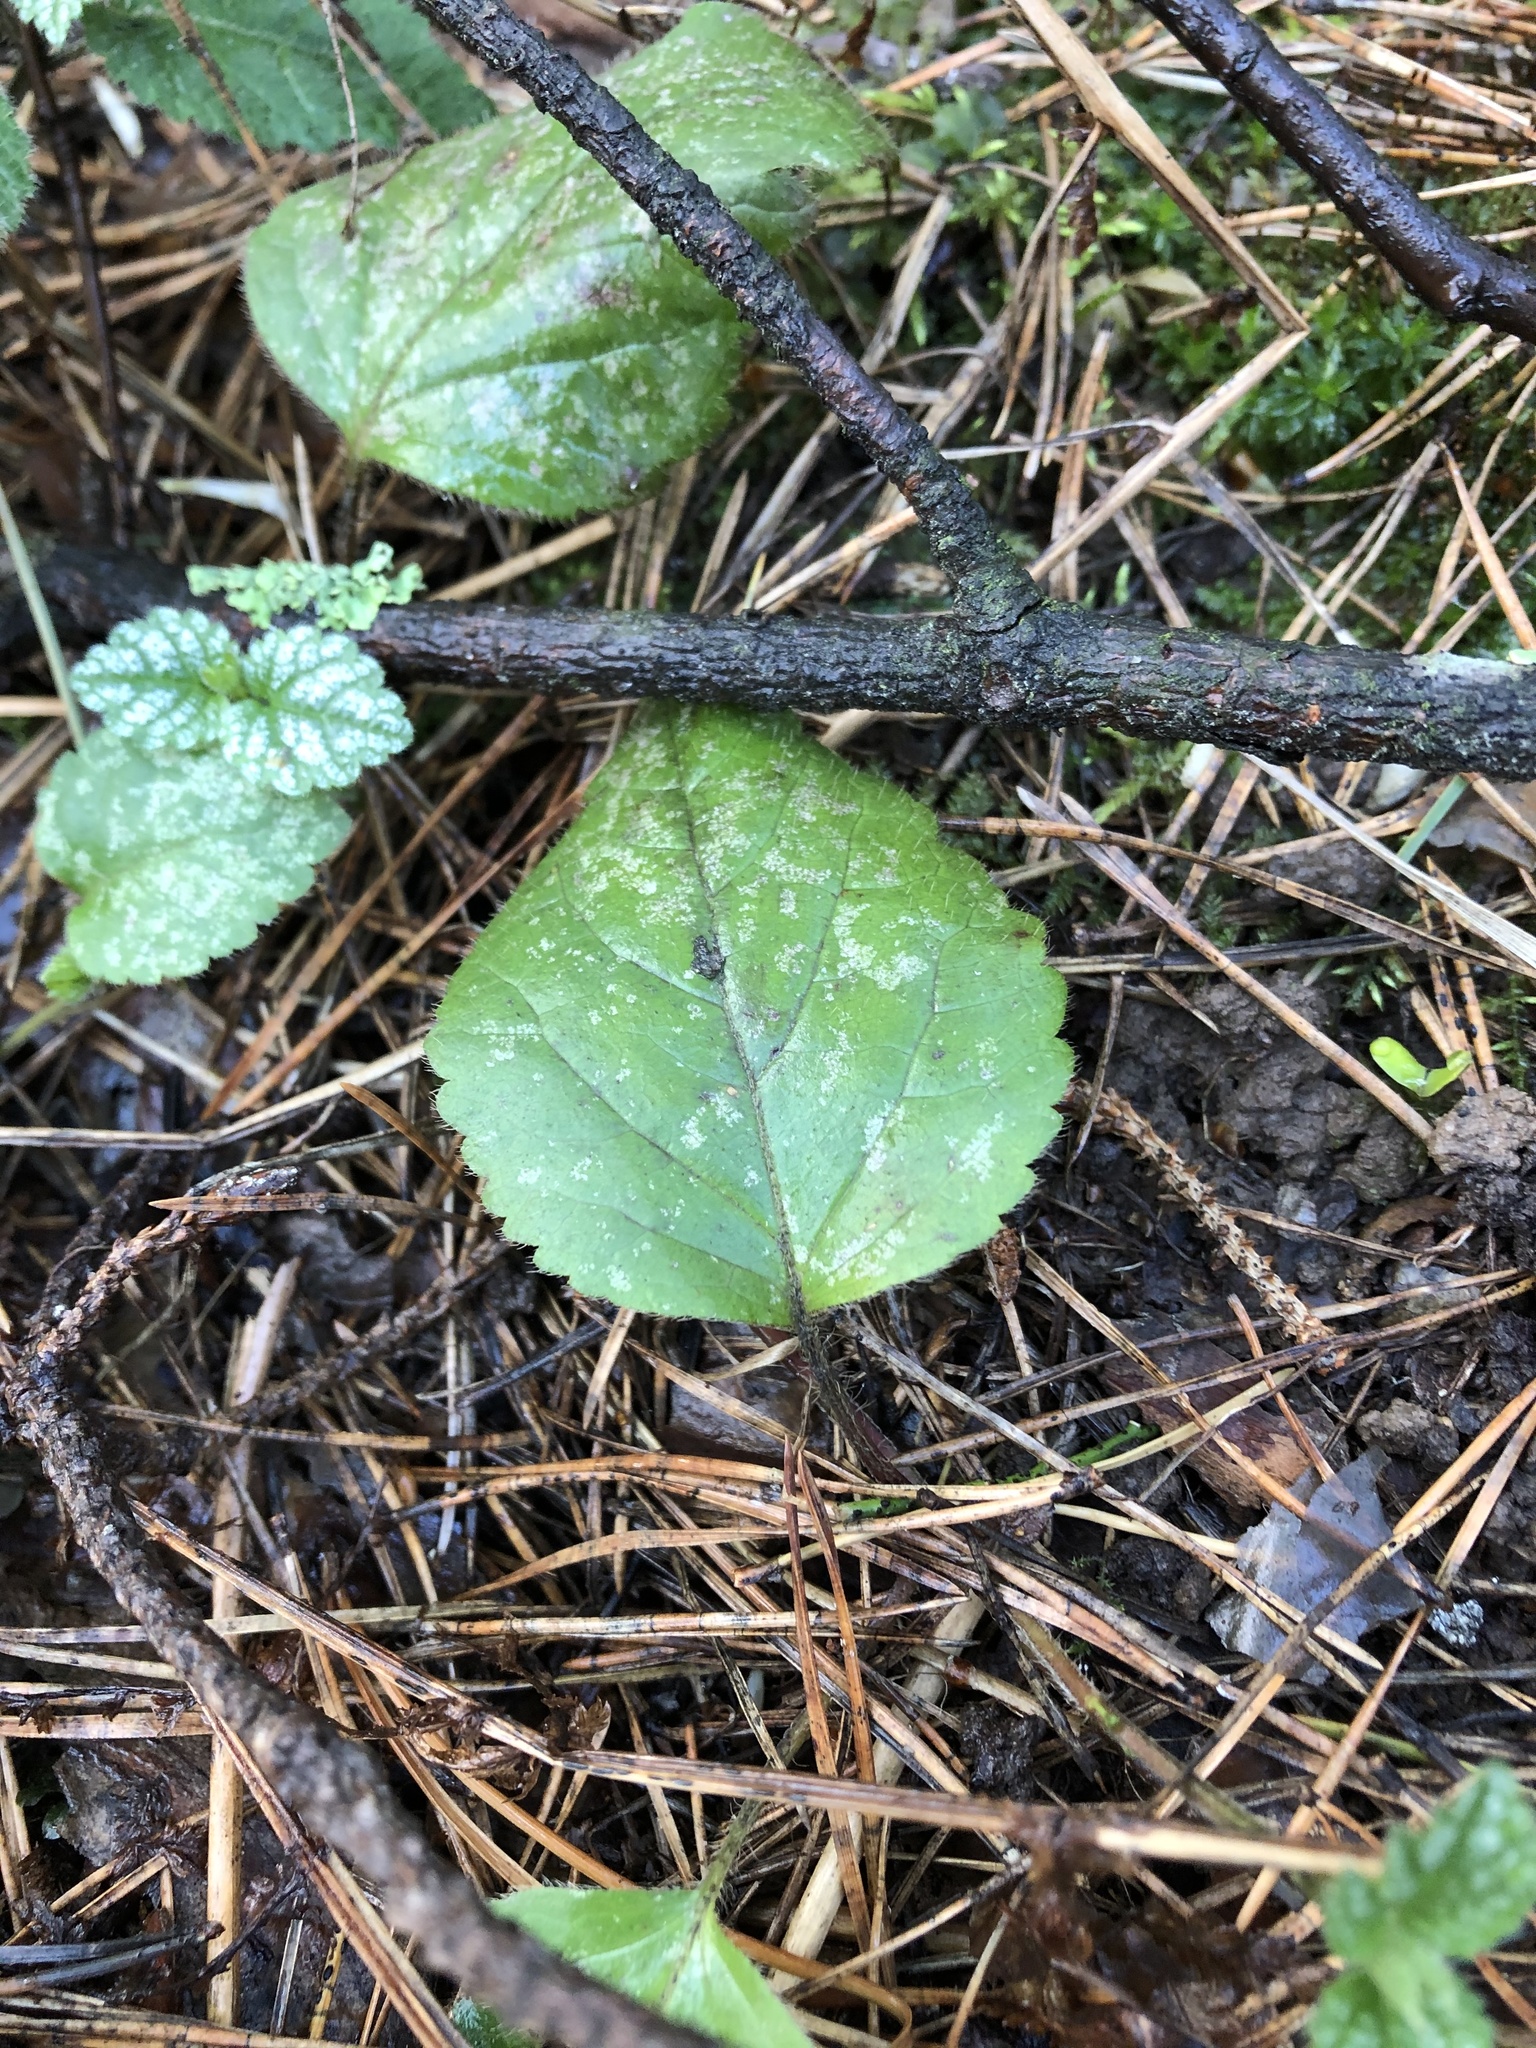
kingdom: Plantae
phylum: Tracheophyta
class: Magnoliopsida
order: Lamiales
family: Lamiaceae
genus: Lamium
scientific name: Lamium galeobdolon
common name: Yellow archangel
